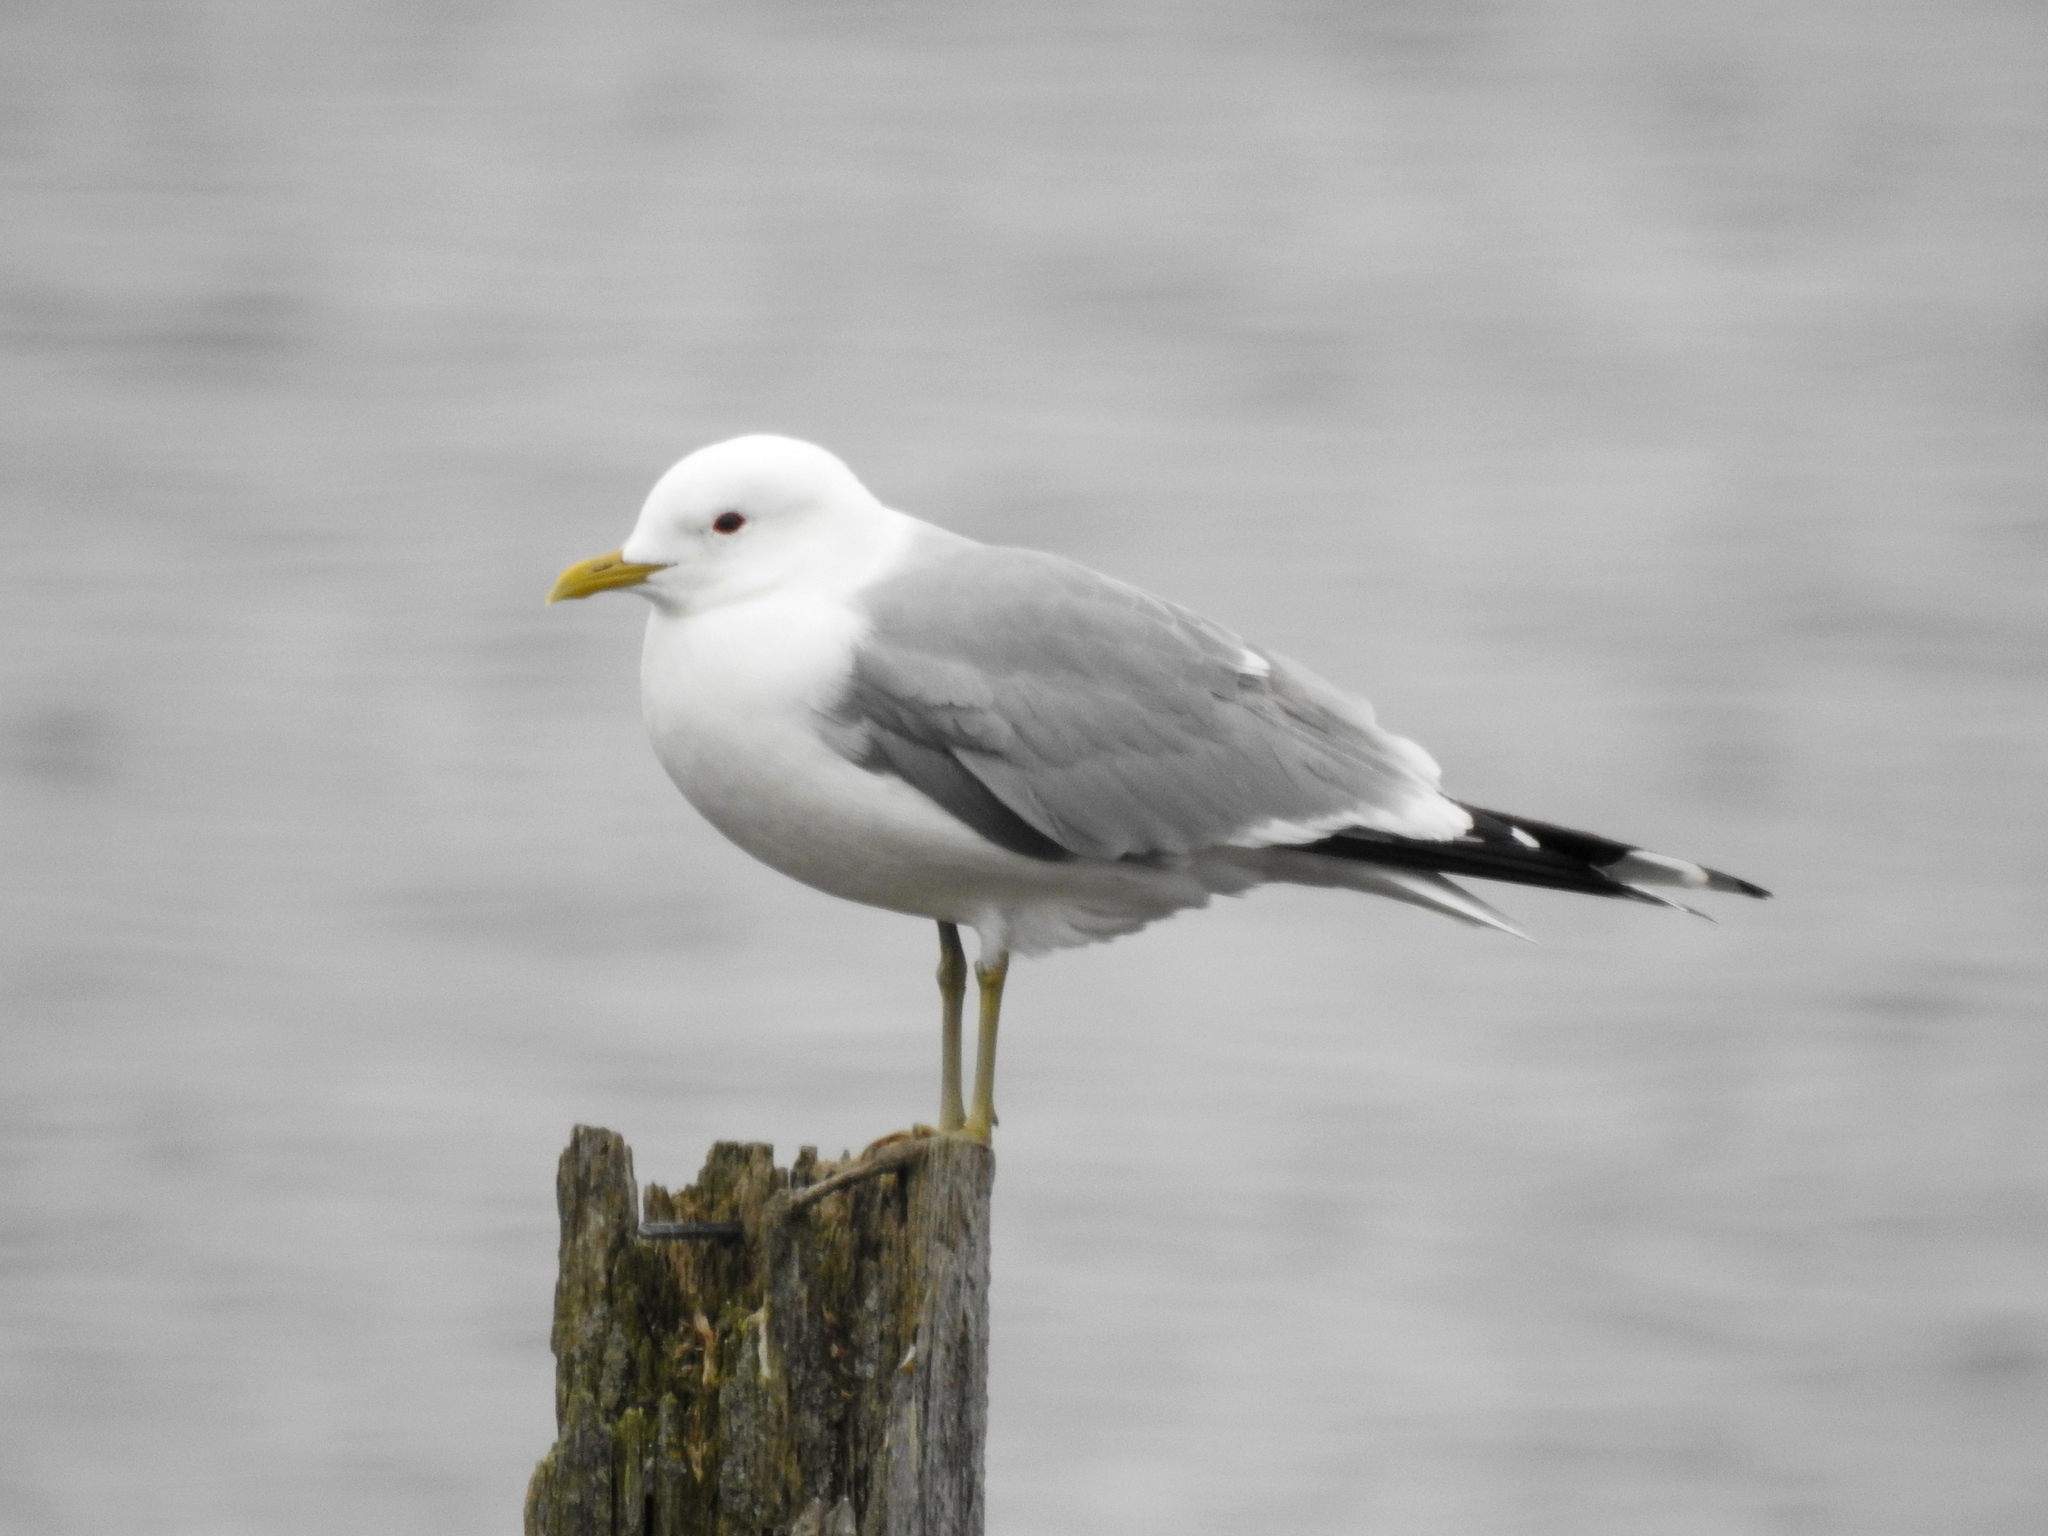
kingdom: Animalia
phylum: Chordata
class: Aves
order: Charadriiformes
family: Laridae
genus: Larus
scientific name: Larus canus
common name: Mew gull
